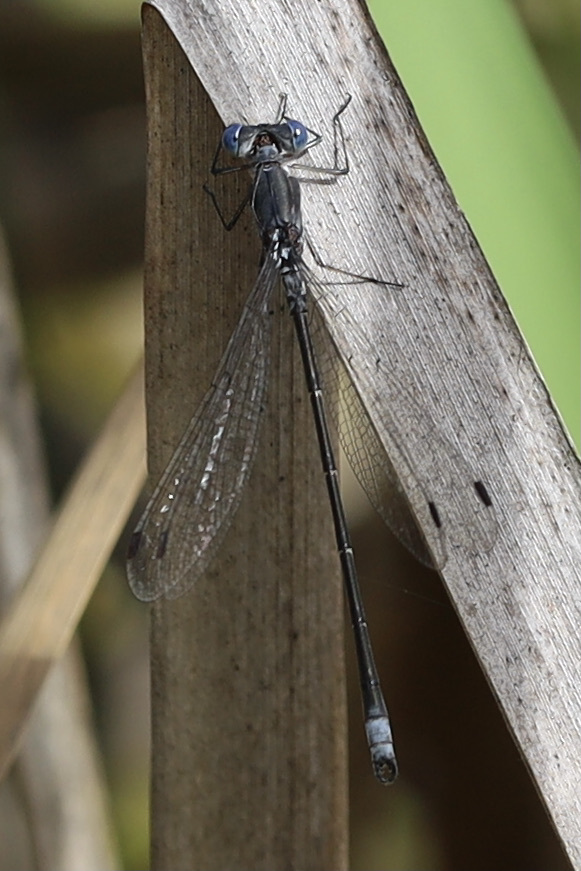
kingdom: Animalia
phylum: Arthropoda
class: Insecta
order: Odonata
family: Lestidae
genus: Lestes
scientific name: Lestes congener
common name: Spotted spreadwing
